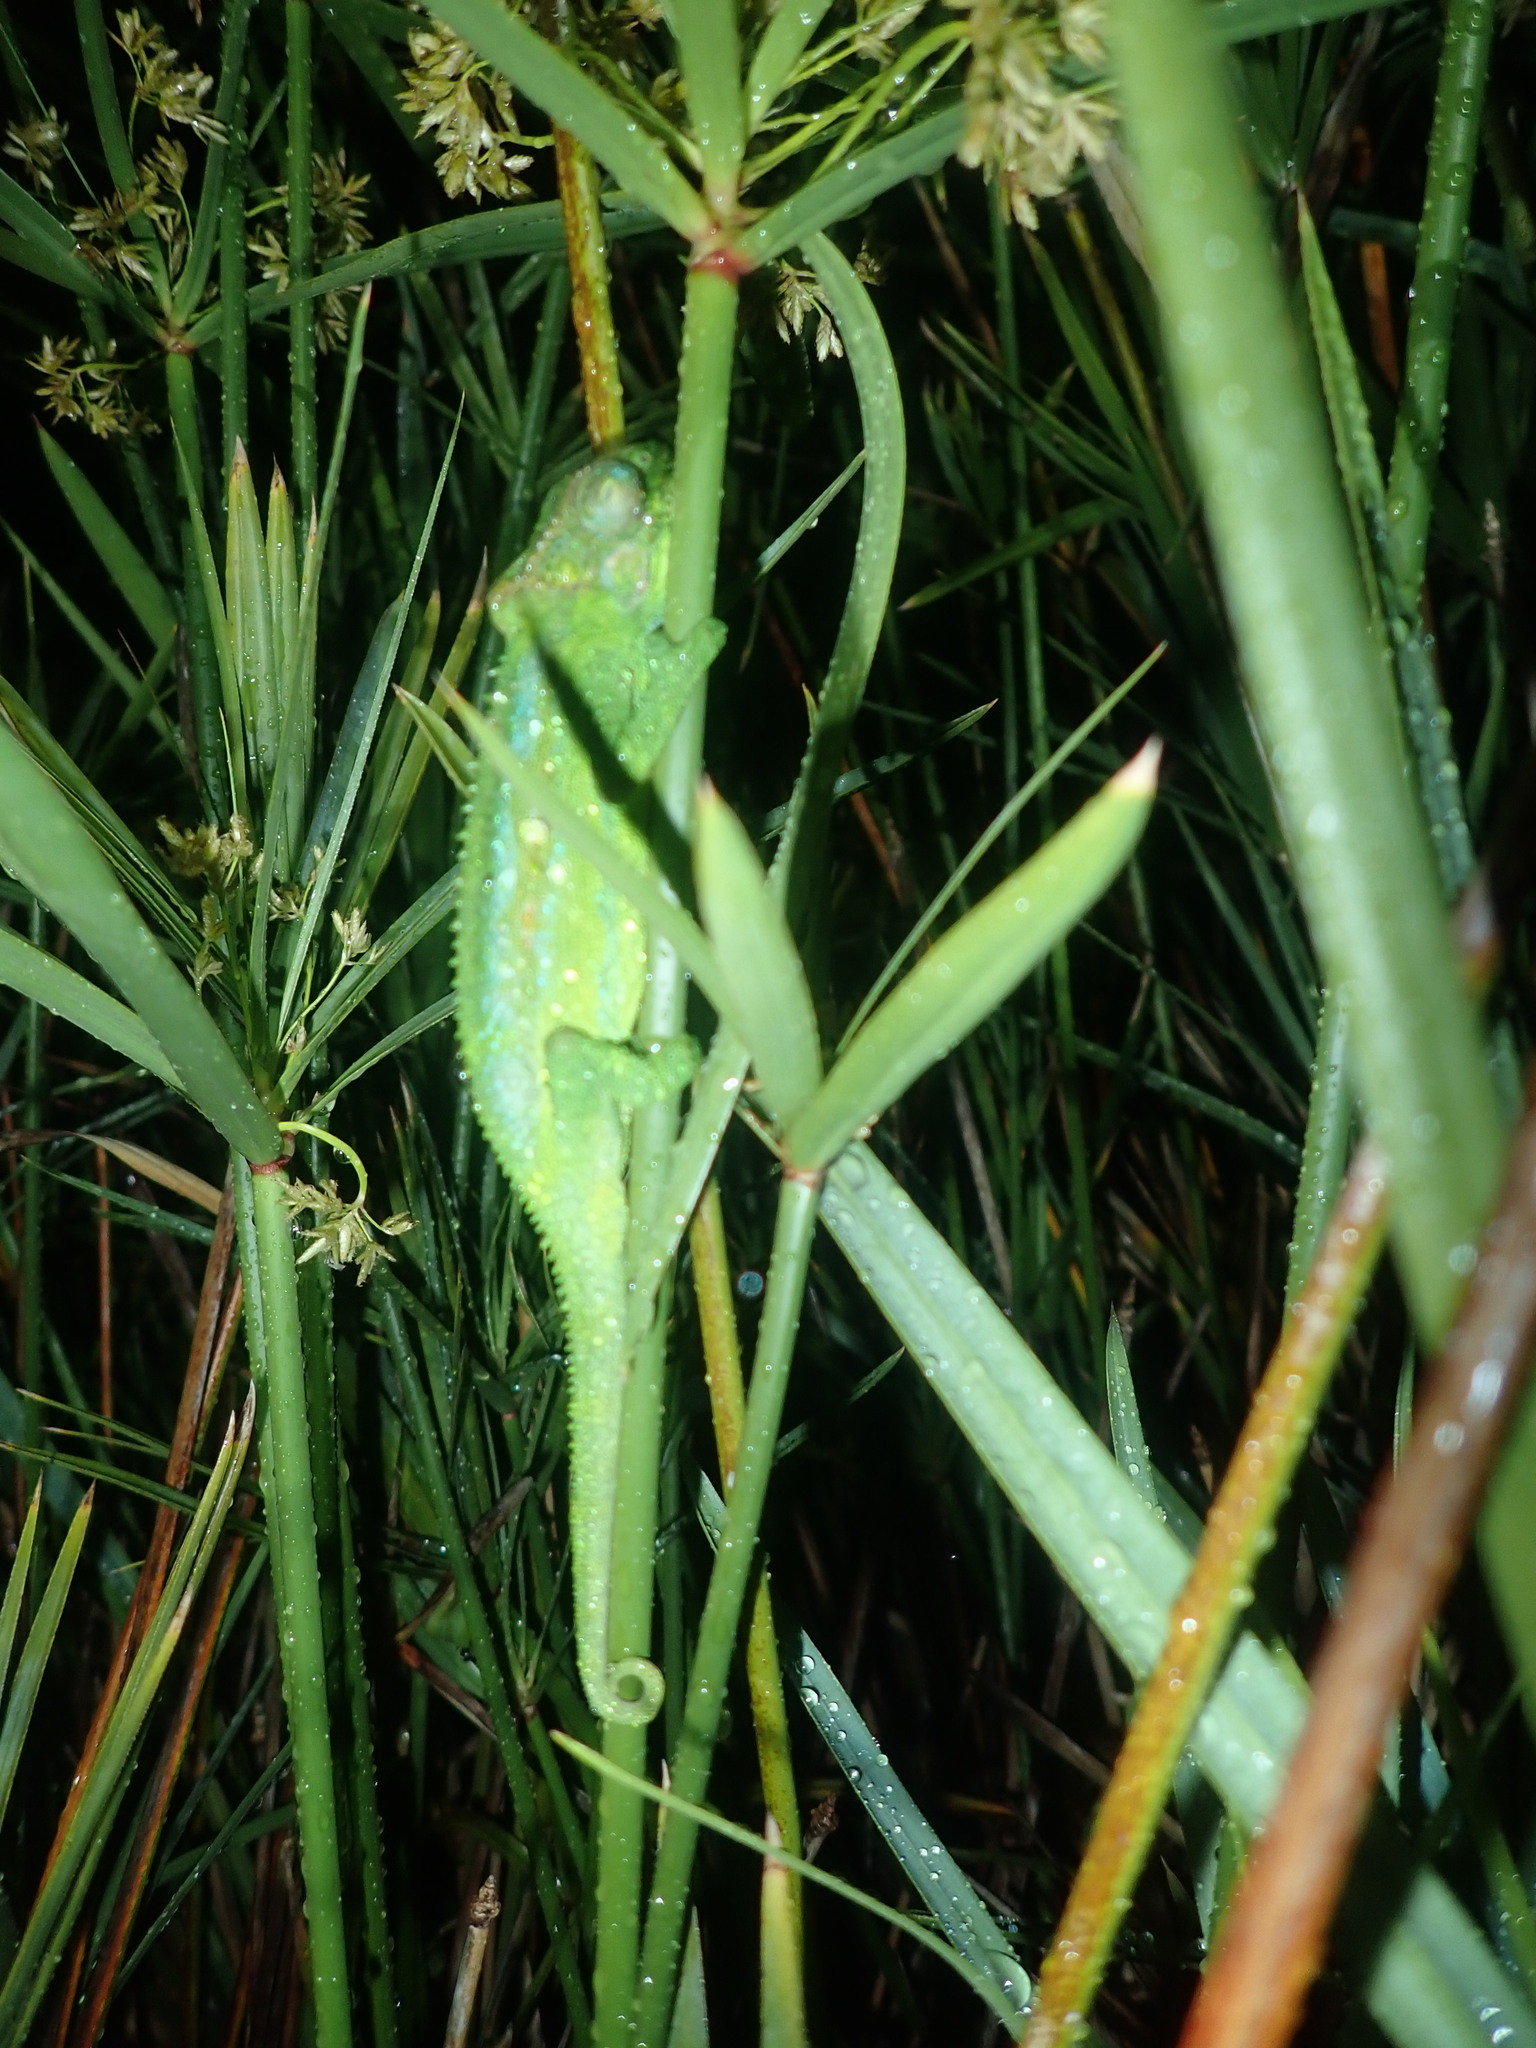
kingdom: Animalia
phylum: Chordata
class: Squamata
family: Chamaeleonidae
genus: Bradypodion
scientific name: Bradypodion pumilum
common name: Cape dwarf chameleon
